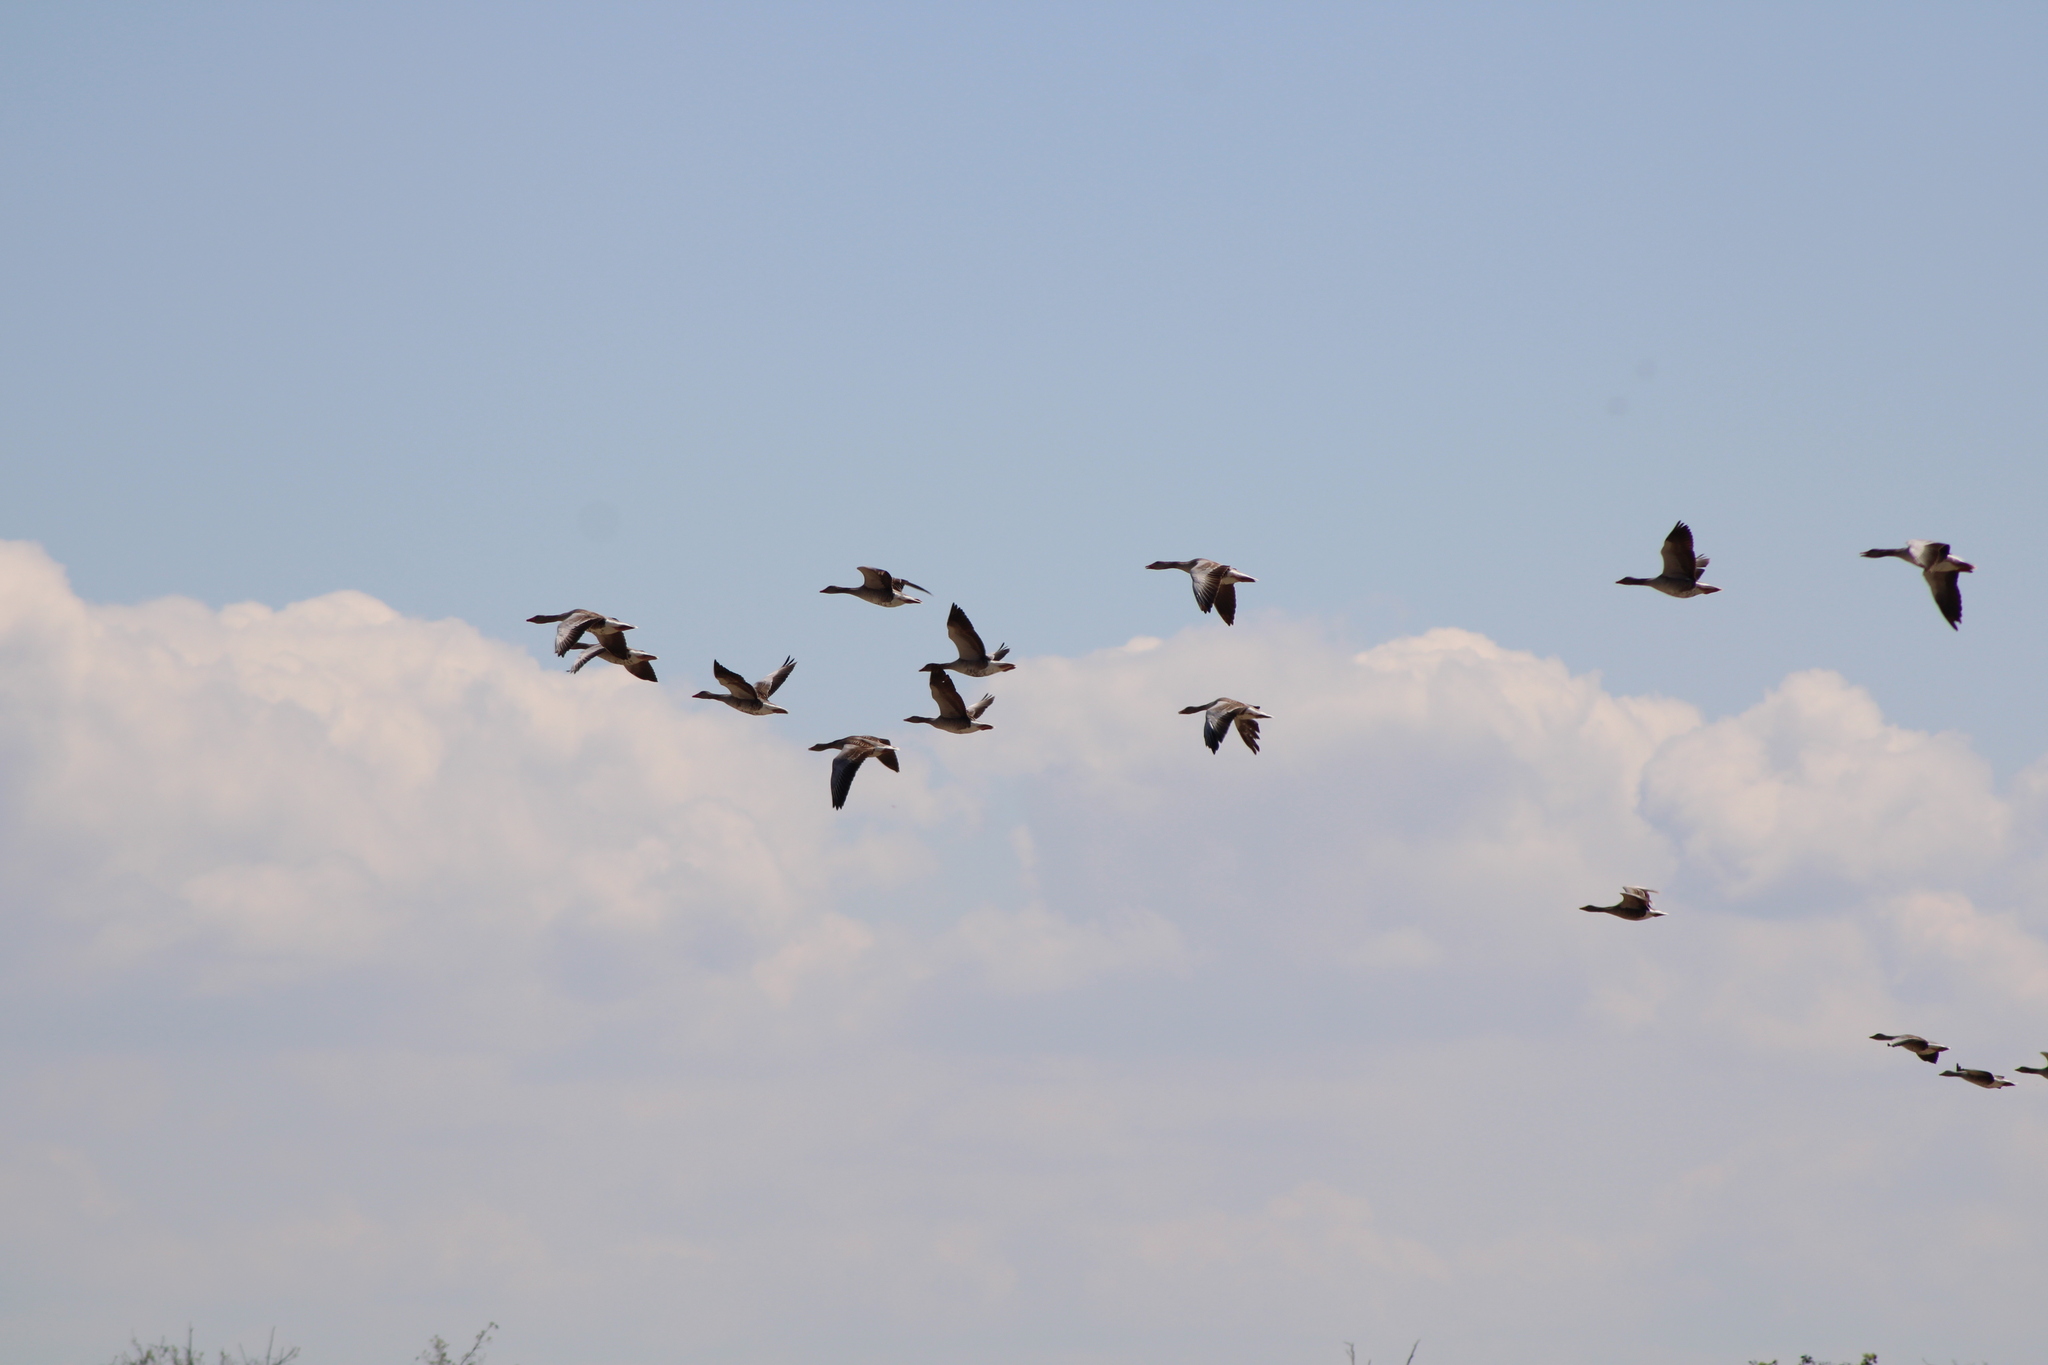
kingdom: Animalia
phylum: Chordata
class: Aves
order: Anseriformes
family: Anatidae
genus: Anser
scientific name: Anser anser
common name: Greylag goose
